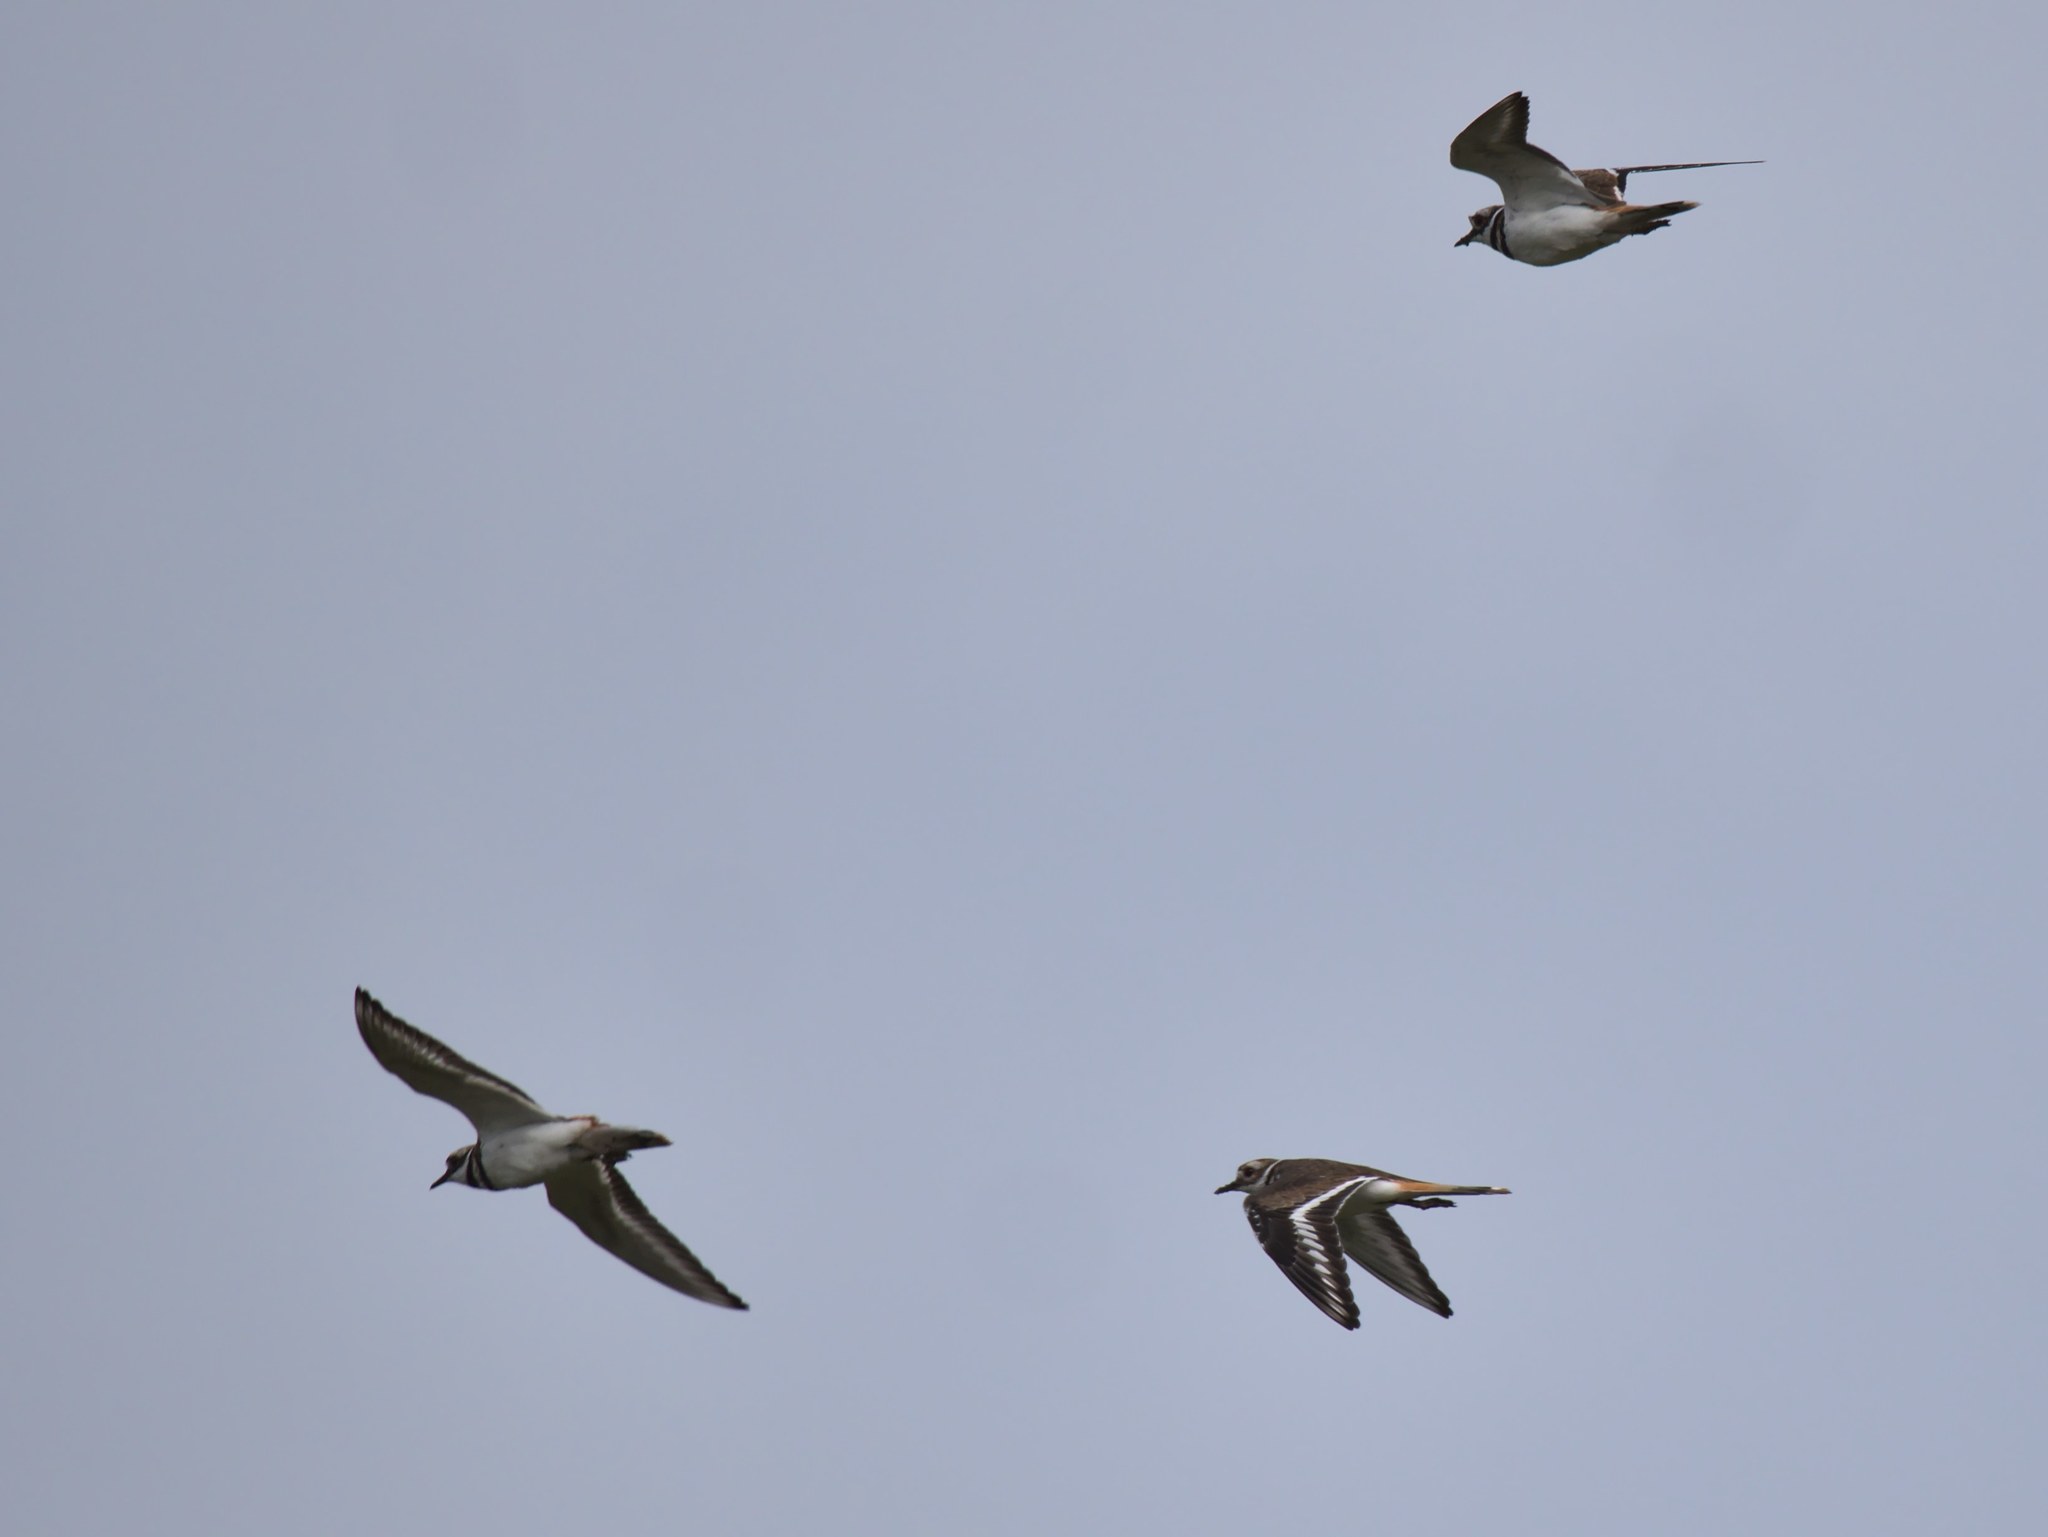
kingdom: Animalia
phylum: Chordata
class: Aves
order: Charadriiformes
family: Charadriidae
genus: Charadrius
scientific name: Charadrius vociferus
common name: Killdeer
